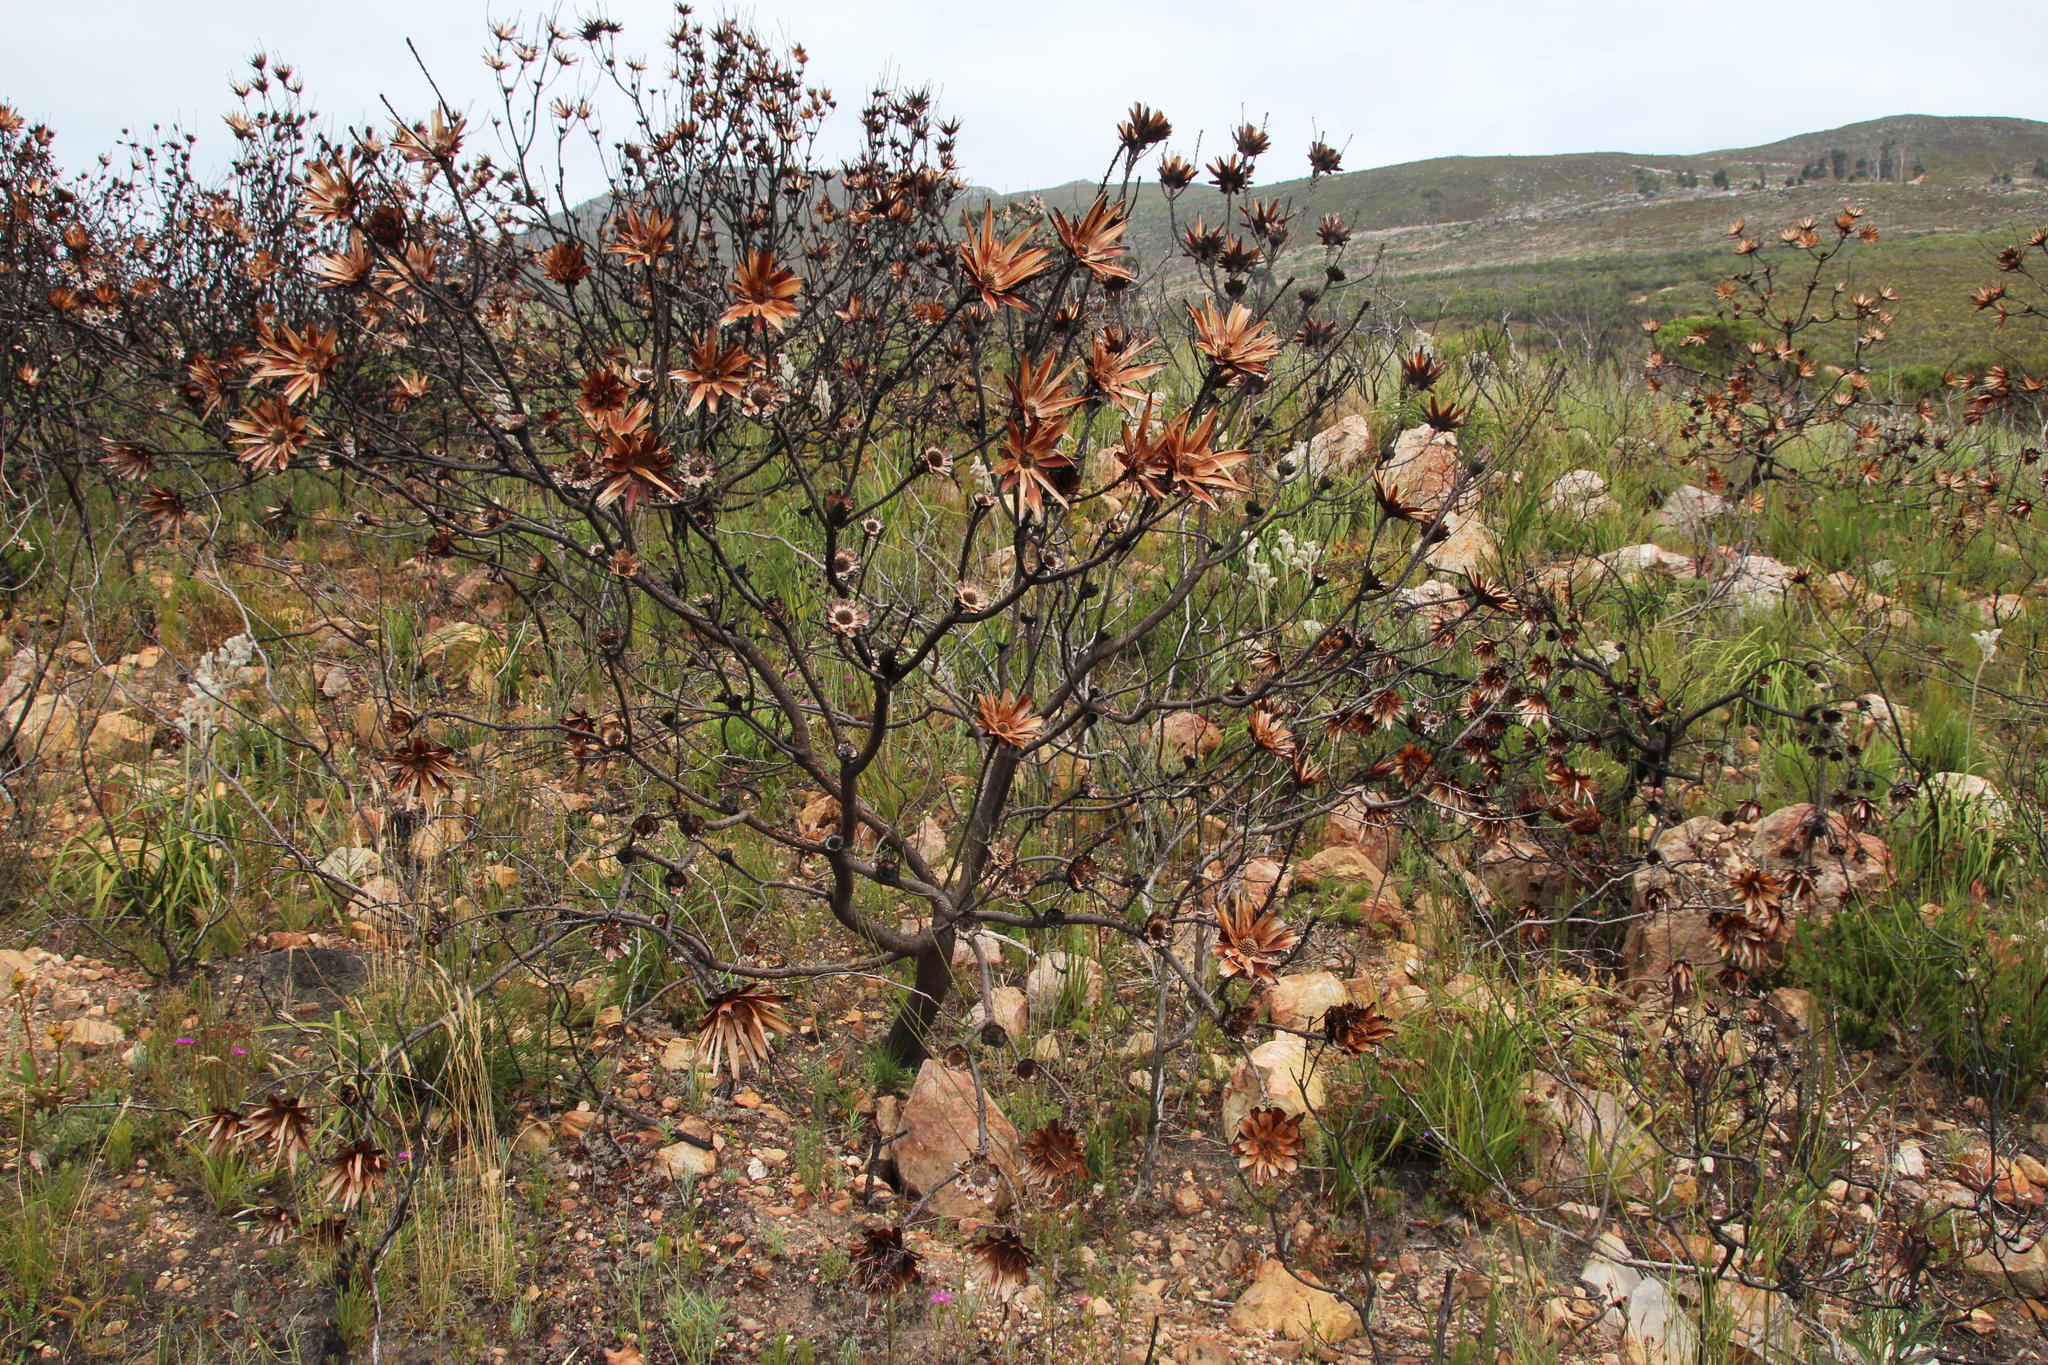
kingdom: Plantae
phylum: Tracheophyta
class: Magnoliopsida
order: Proteales
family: Proteaceae
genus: Protea
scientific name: Protea repens
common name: Sugarbush
